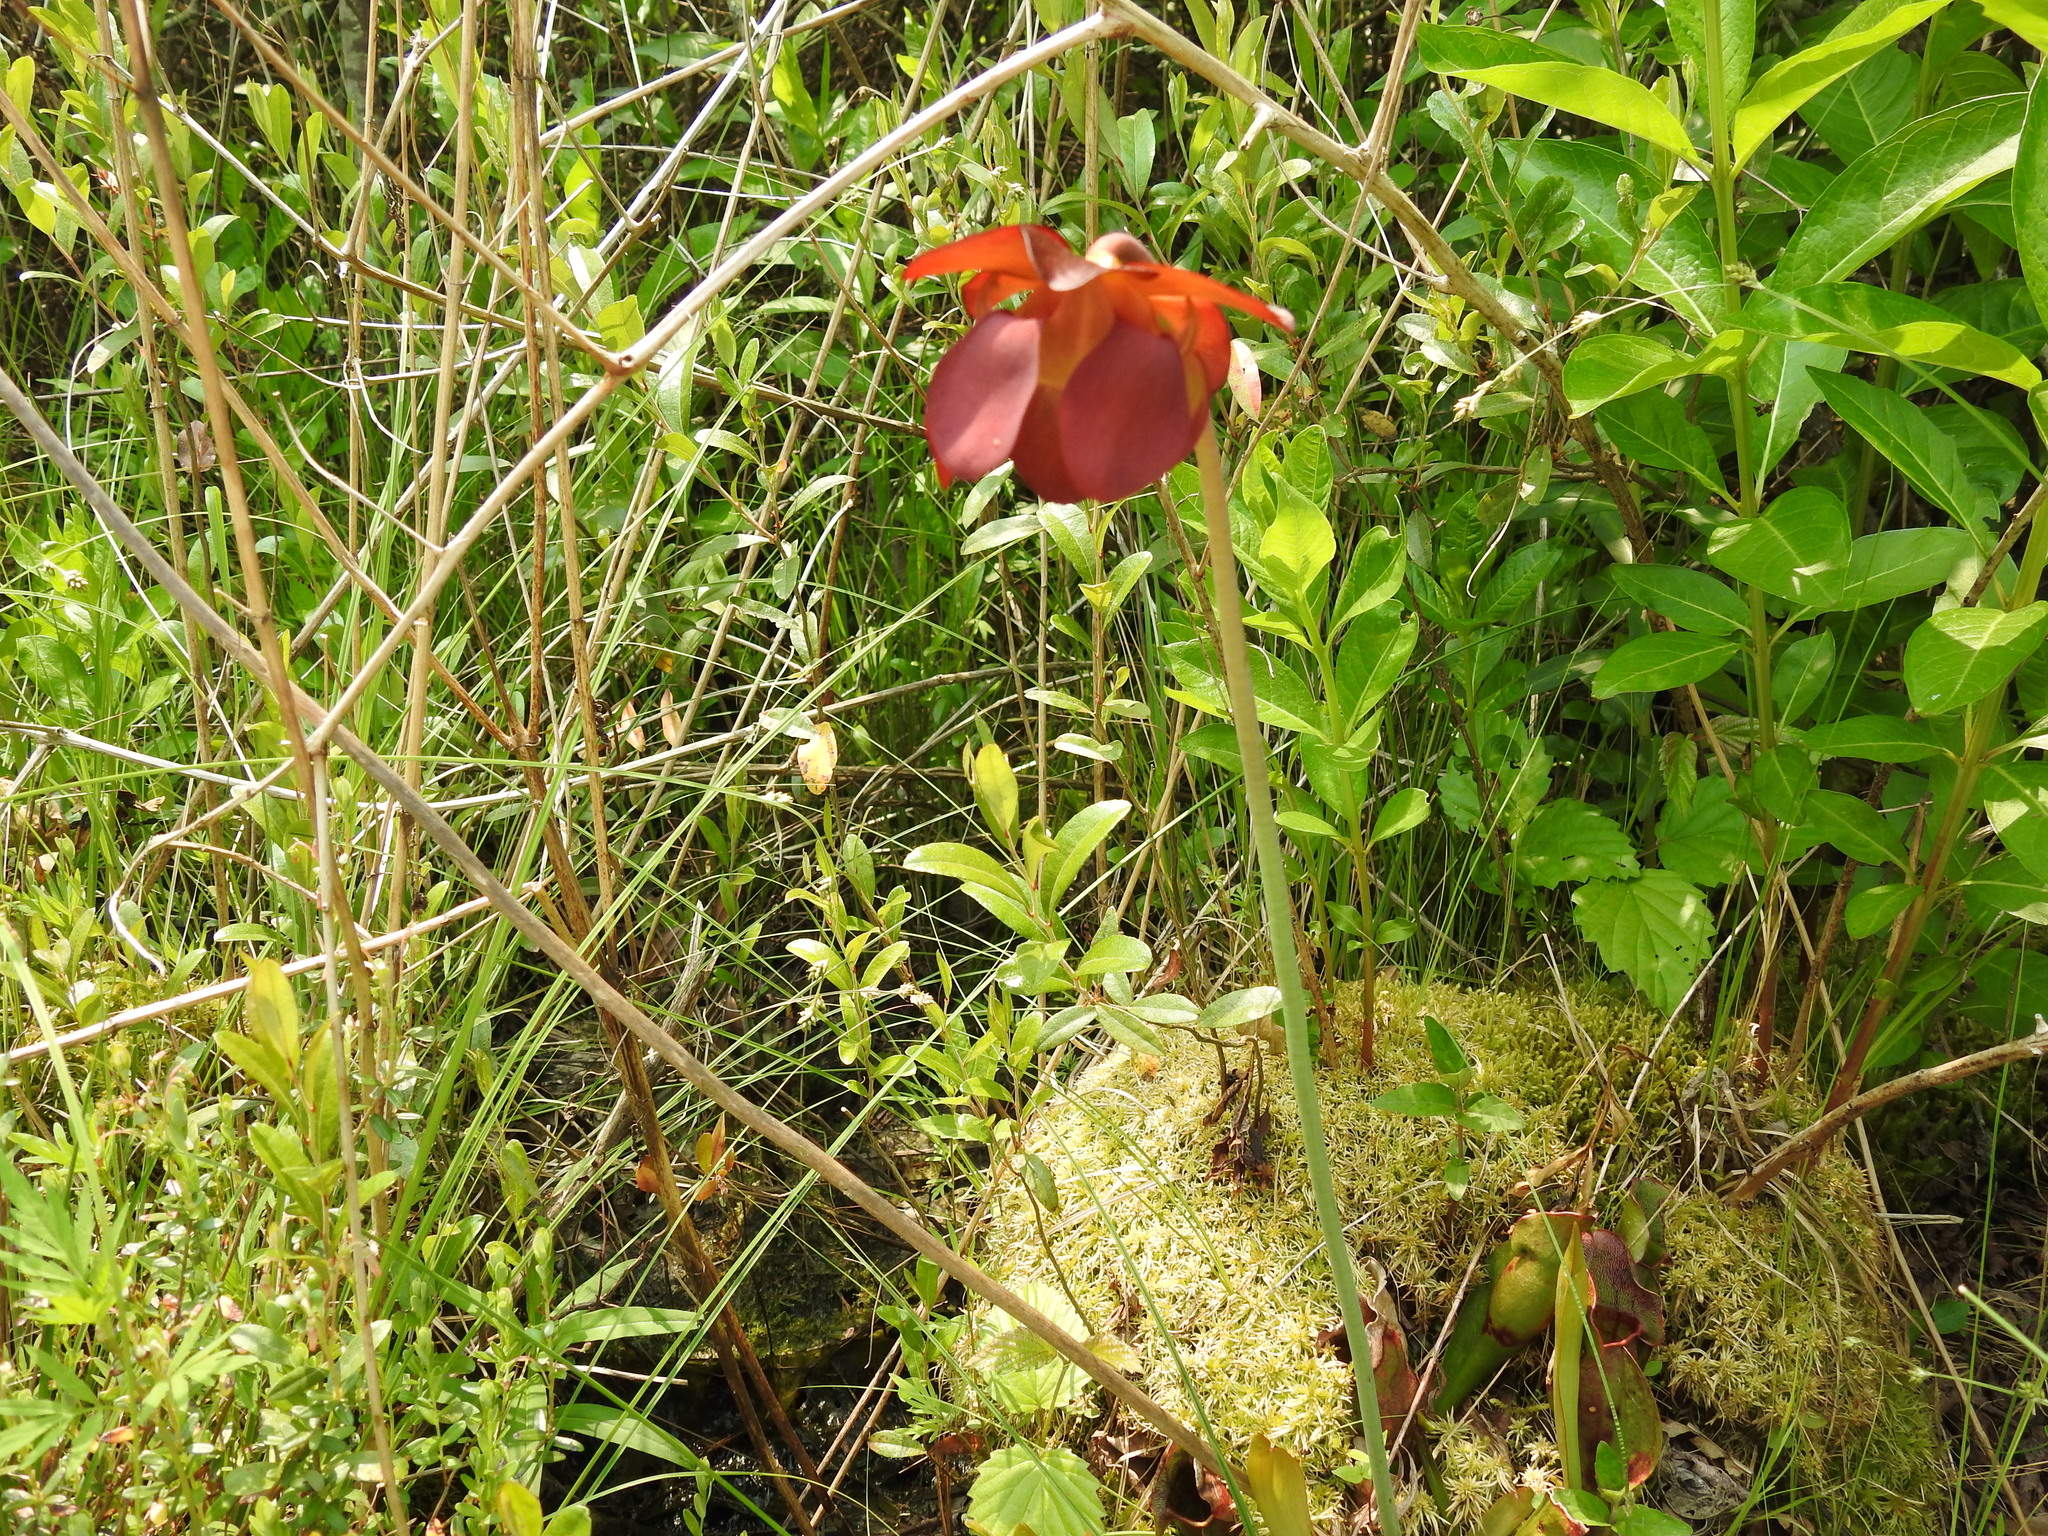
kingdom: Plantae
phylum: Tracheophyta
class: Magnoliopsida
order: Ericales
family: Sarraceniaceae
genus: Sarracenia
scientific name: Sarracenia purpurea
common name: Pitcherplant
